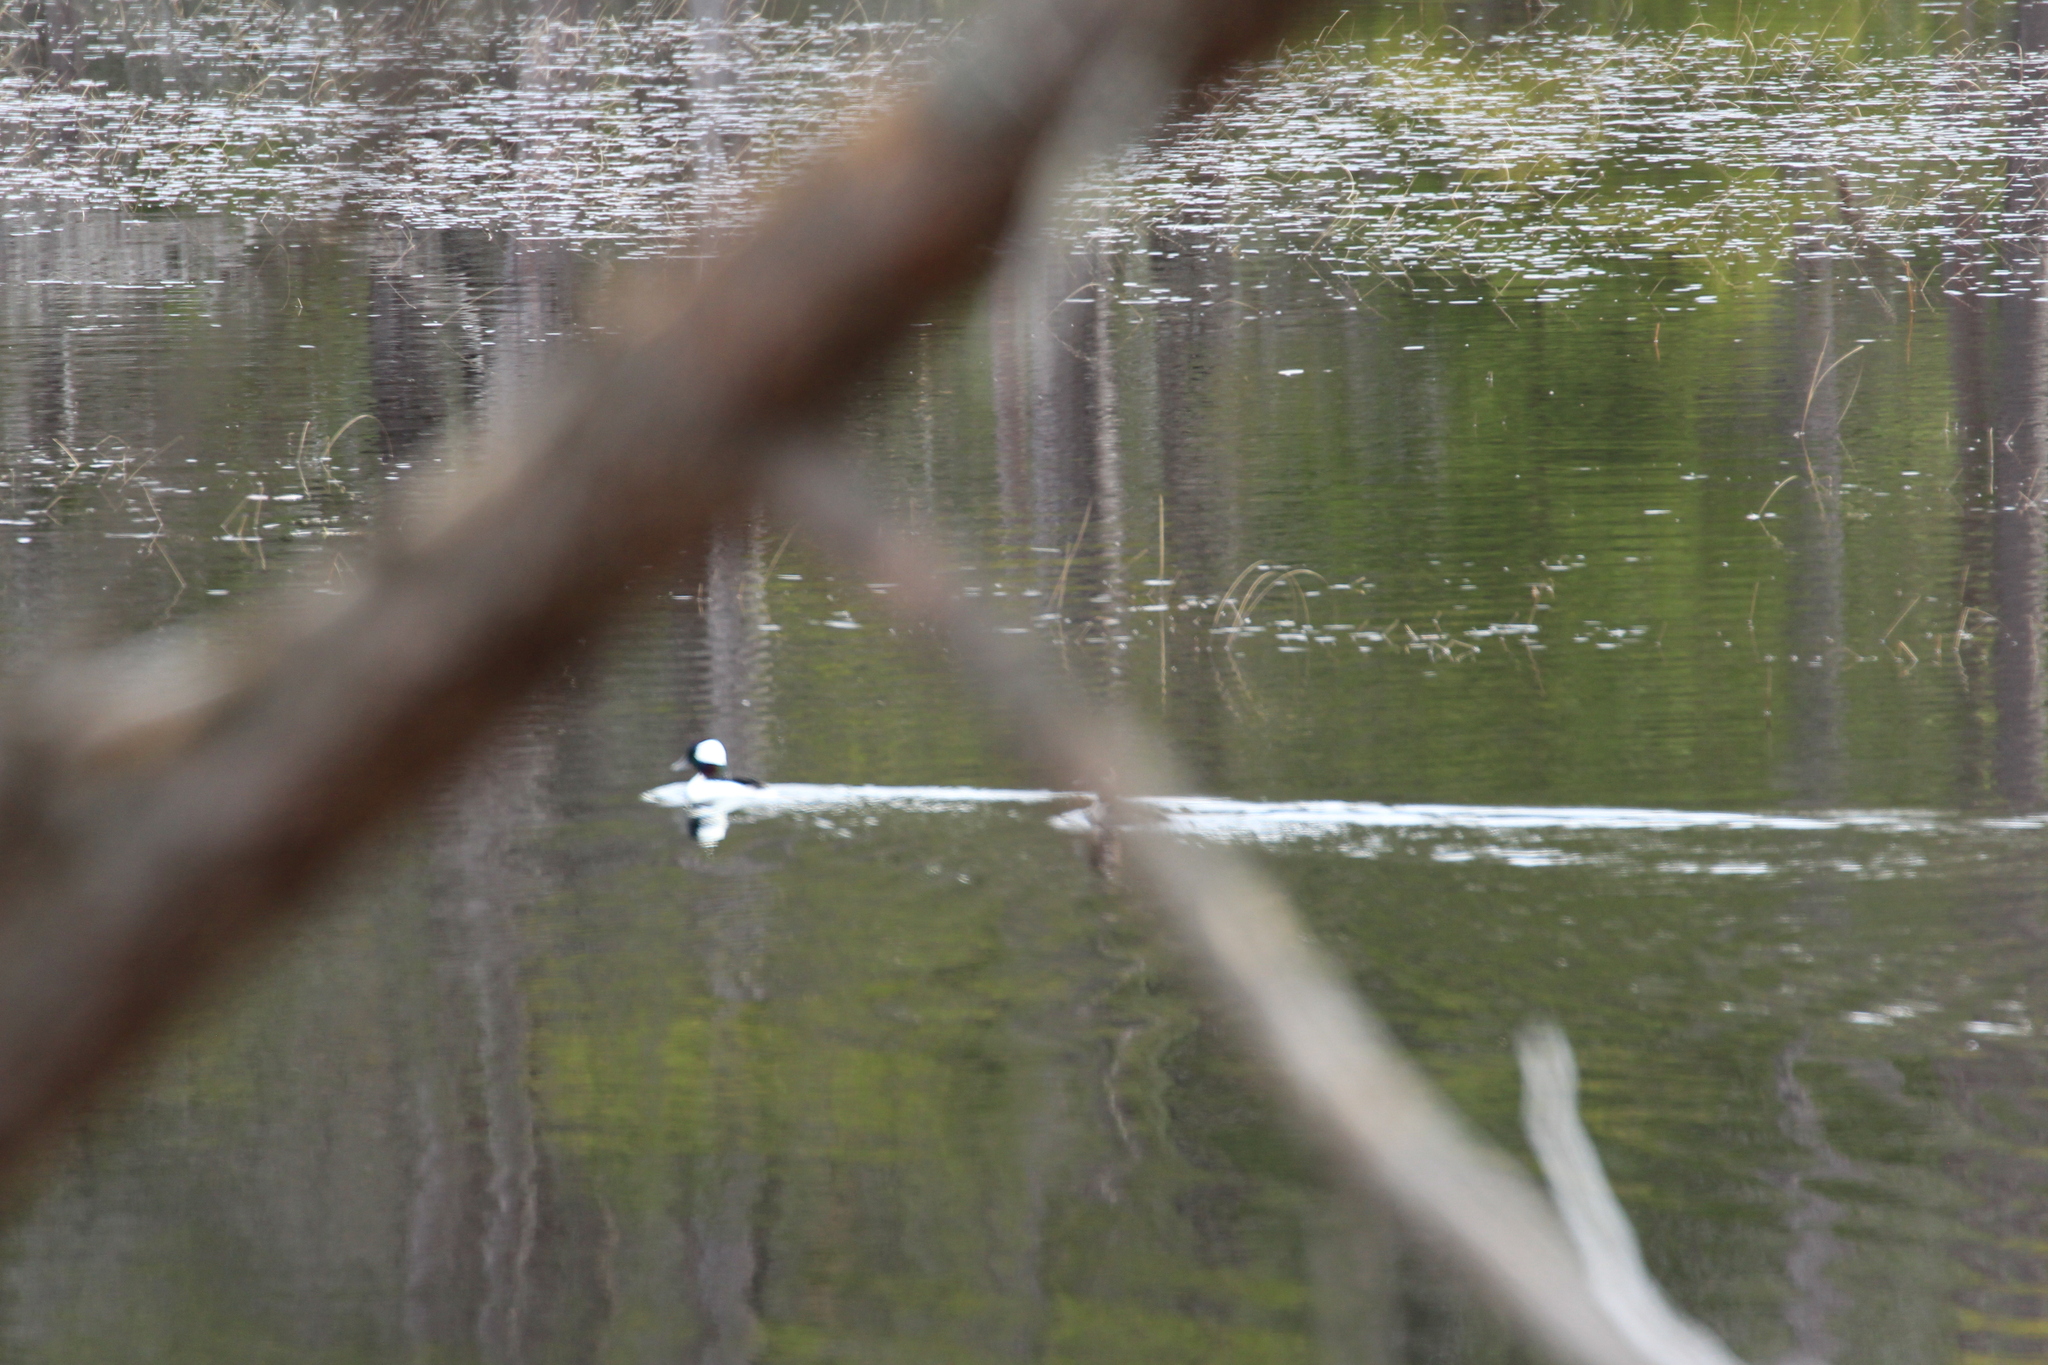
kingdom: Animalia
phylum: Chordata
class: Aves
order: Anseriformes
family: Anatidae
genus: Bucephala
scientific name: Bucephala albeola
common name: Bufflehead
